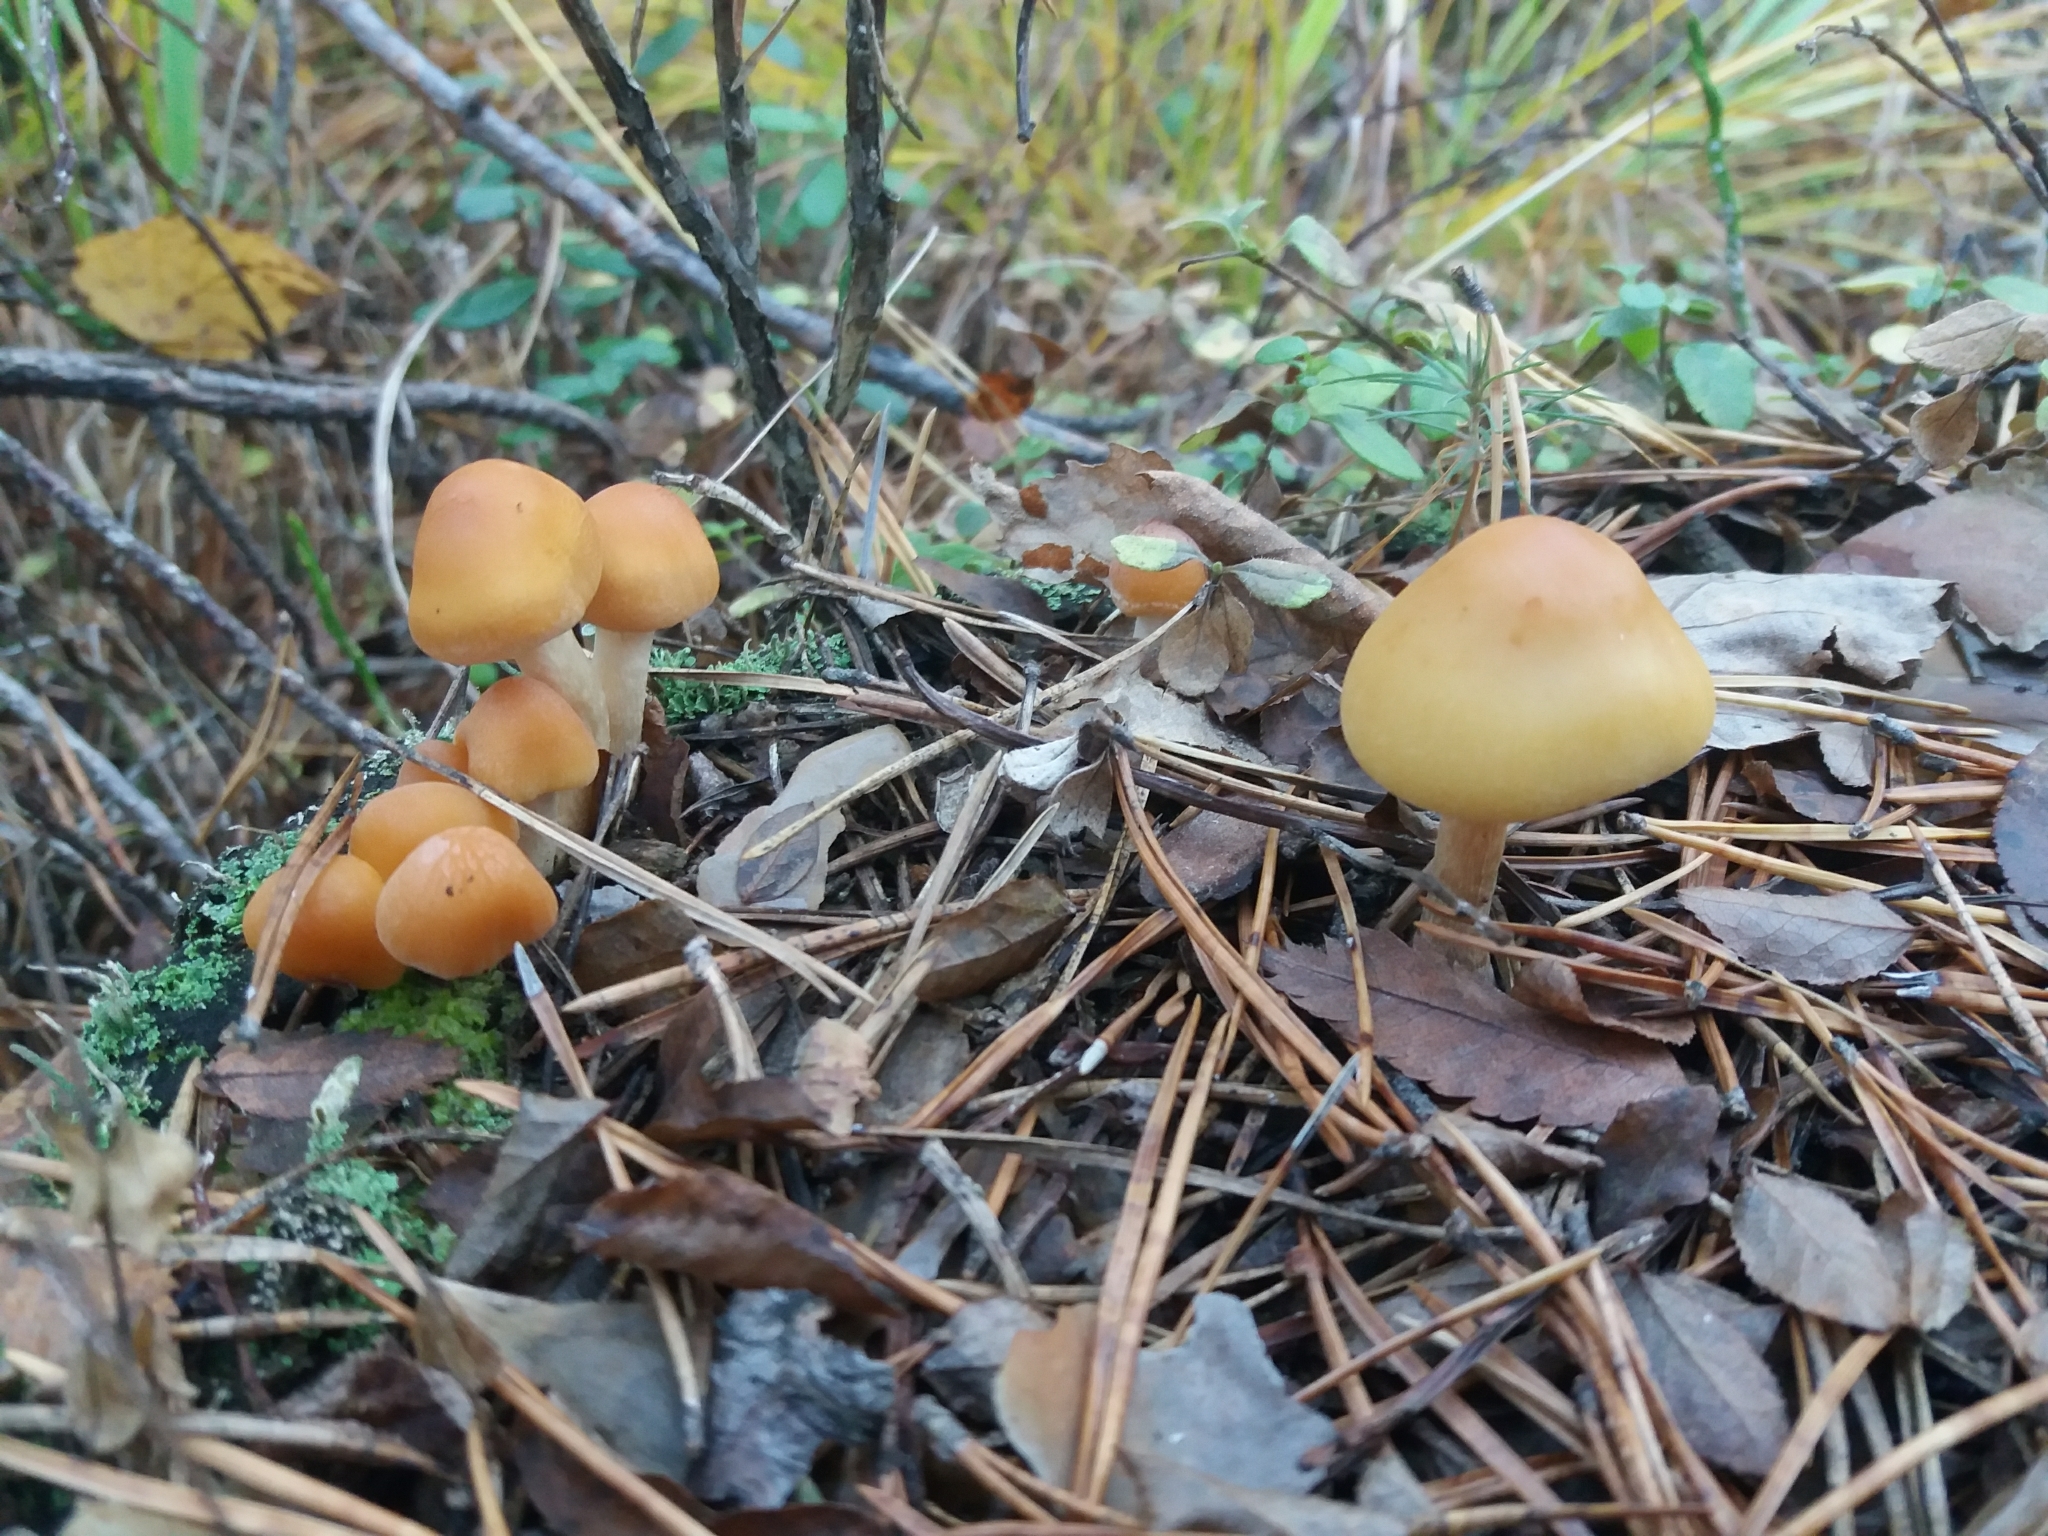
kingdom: Fungi
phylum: Basidiomycota
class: Agaricomycetes
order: Agaricales
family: Strophariaceae
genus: Hypholoma
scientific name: Hypholoma capnoides
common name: Conifer tuft
